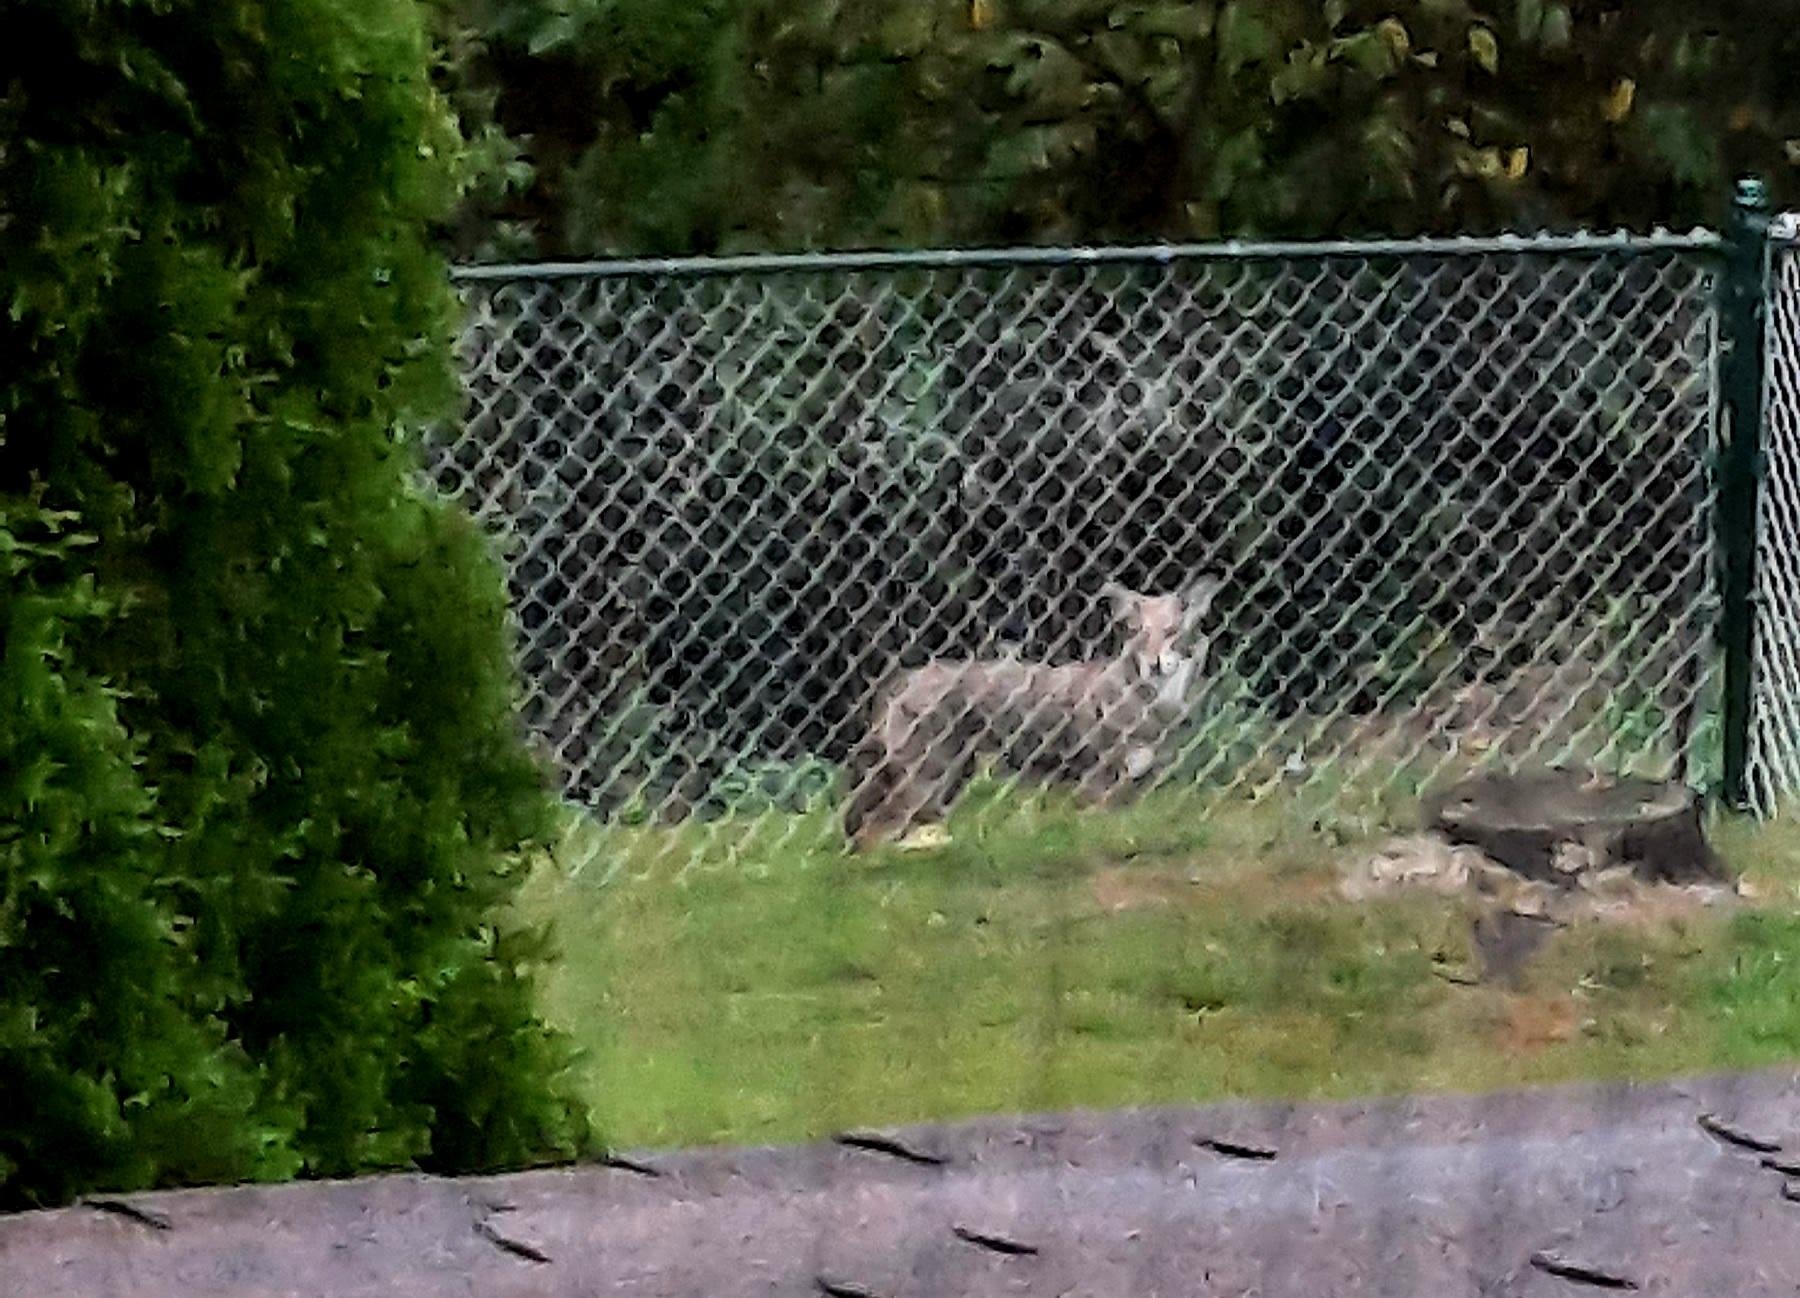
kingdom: Animalia
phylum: Chordata
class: Mammalia
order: Carnivora
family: Canidae
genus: Canis
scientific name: Canis latrans
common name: Coyote
